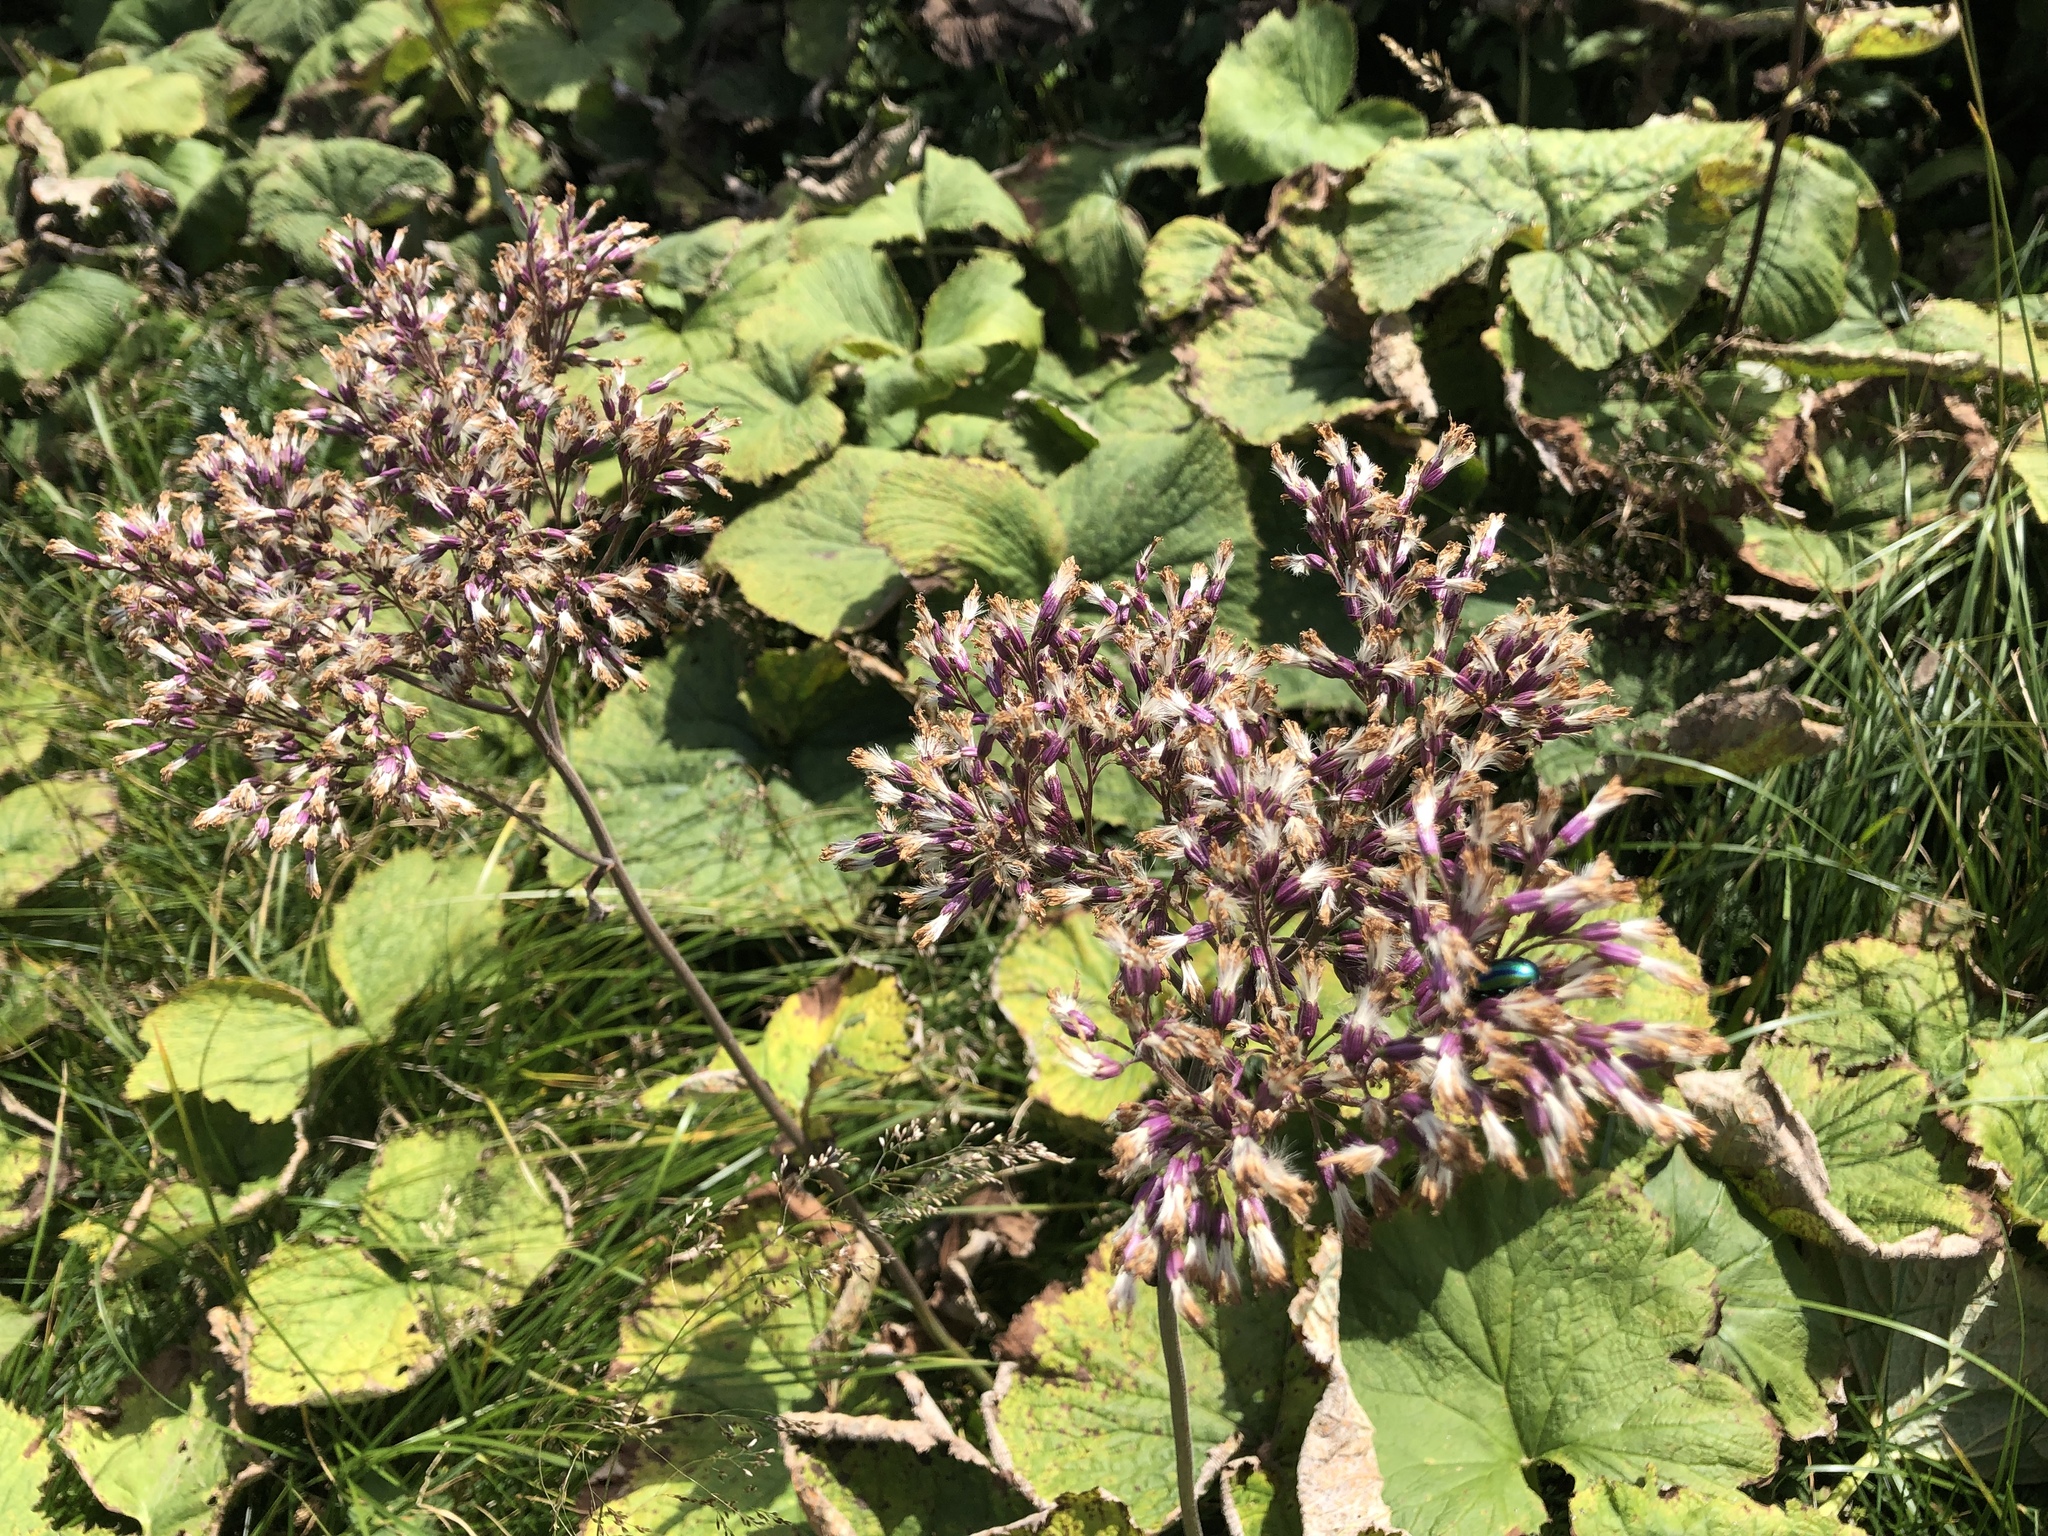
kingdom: Plantae
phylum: Tracheophyta
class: Magnoliopsida
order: Asterales
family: Asteraceae
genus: Adenostyles
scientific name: Adenostyles alliariae
